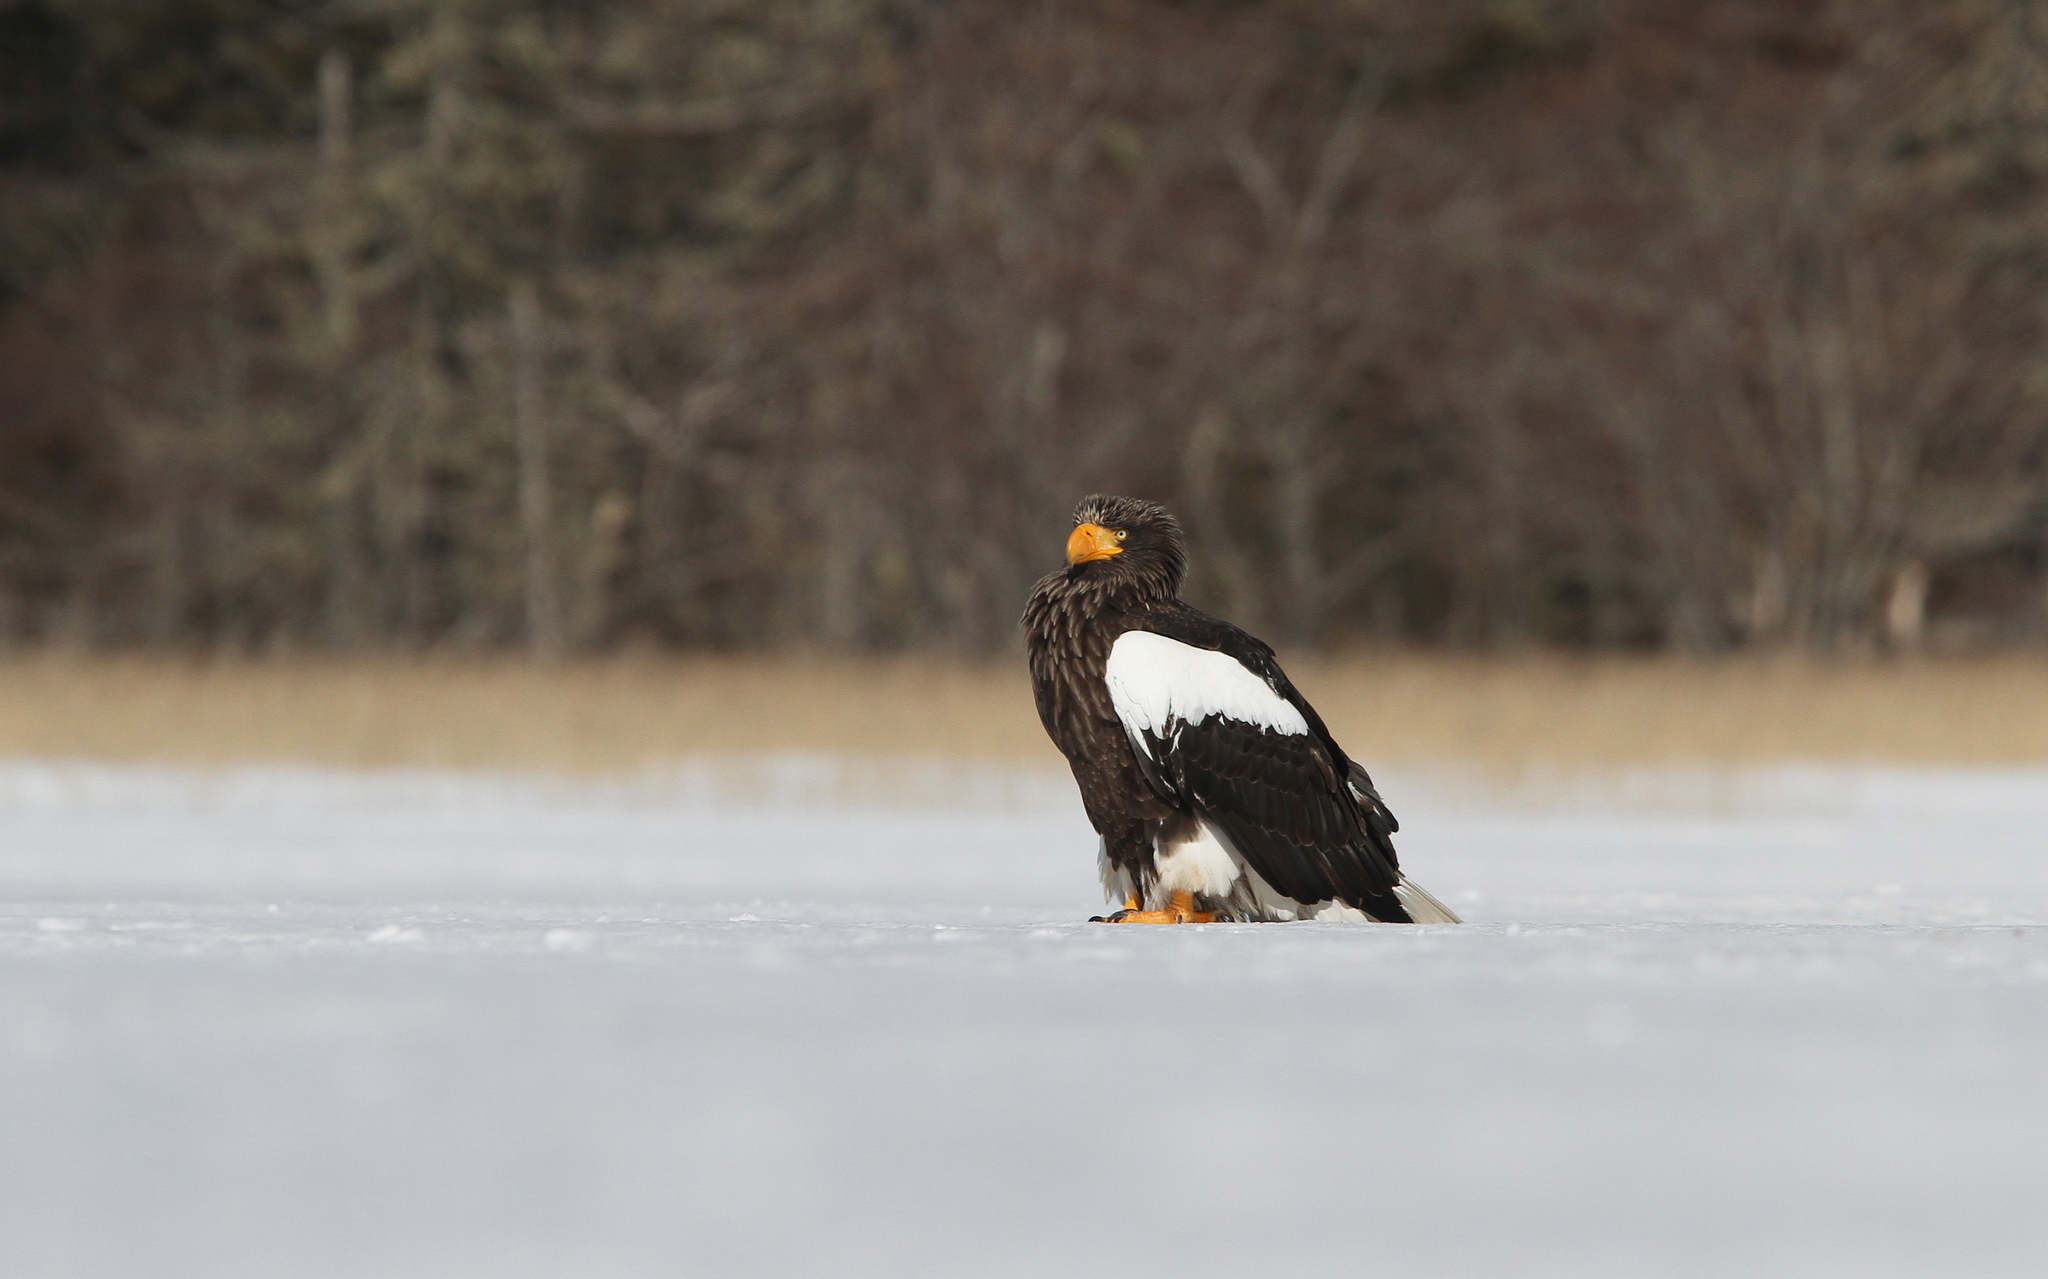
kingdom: Animalia
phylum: Chordata
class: Aves
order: Accipitriformes
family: Accipitridae
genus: Haliaeetus
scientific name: Haliaeetus pelagicus
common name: Steller's sea eagle
